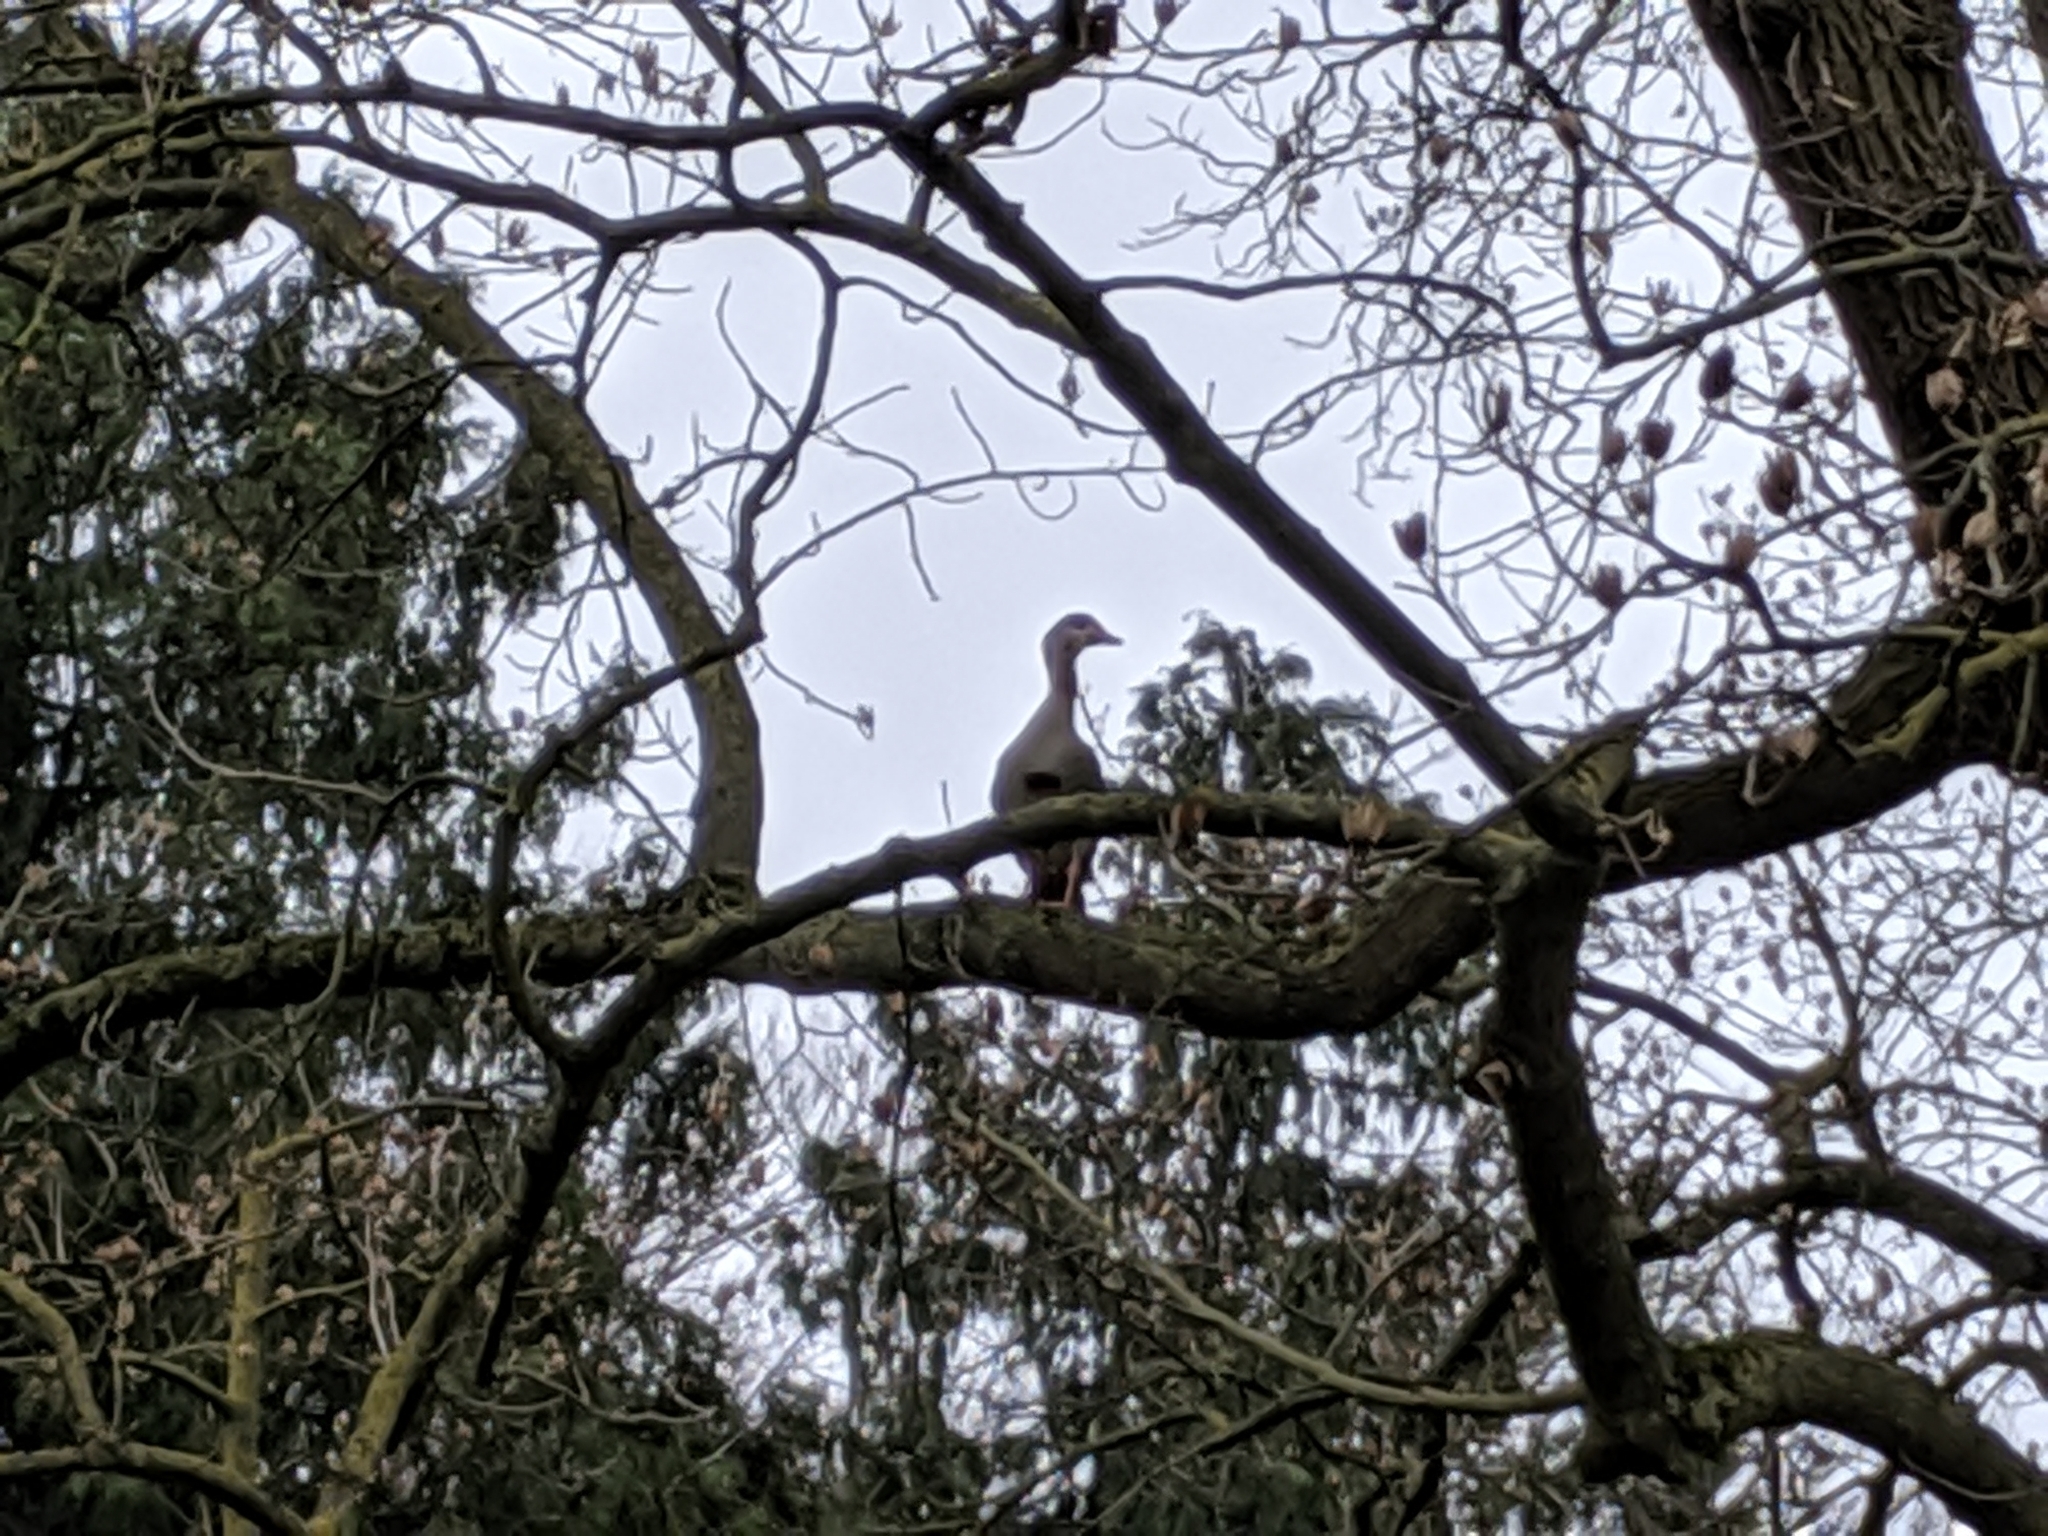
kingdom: Animalia
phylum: Chordata
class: Aves
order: Anseriformes
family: Anatidae
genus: Alopochen
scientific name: Alopochen aegyptiaca
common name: Egyptian goose
